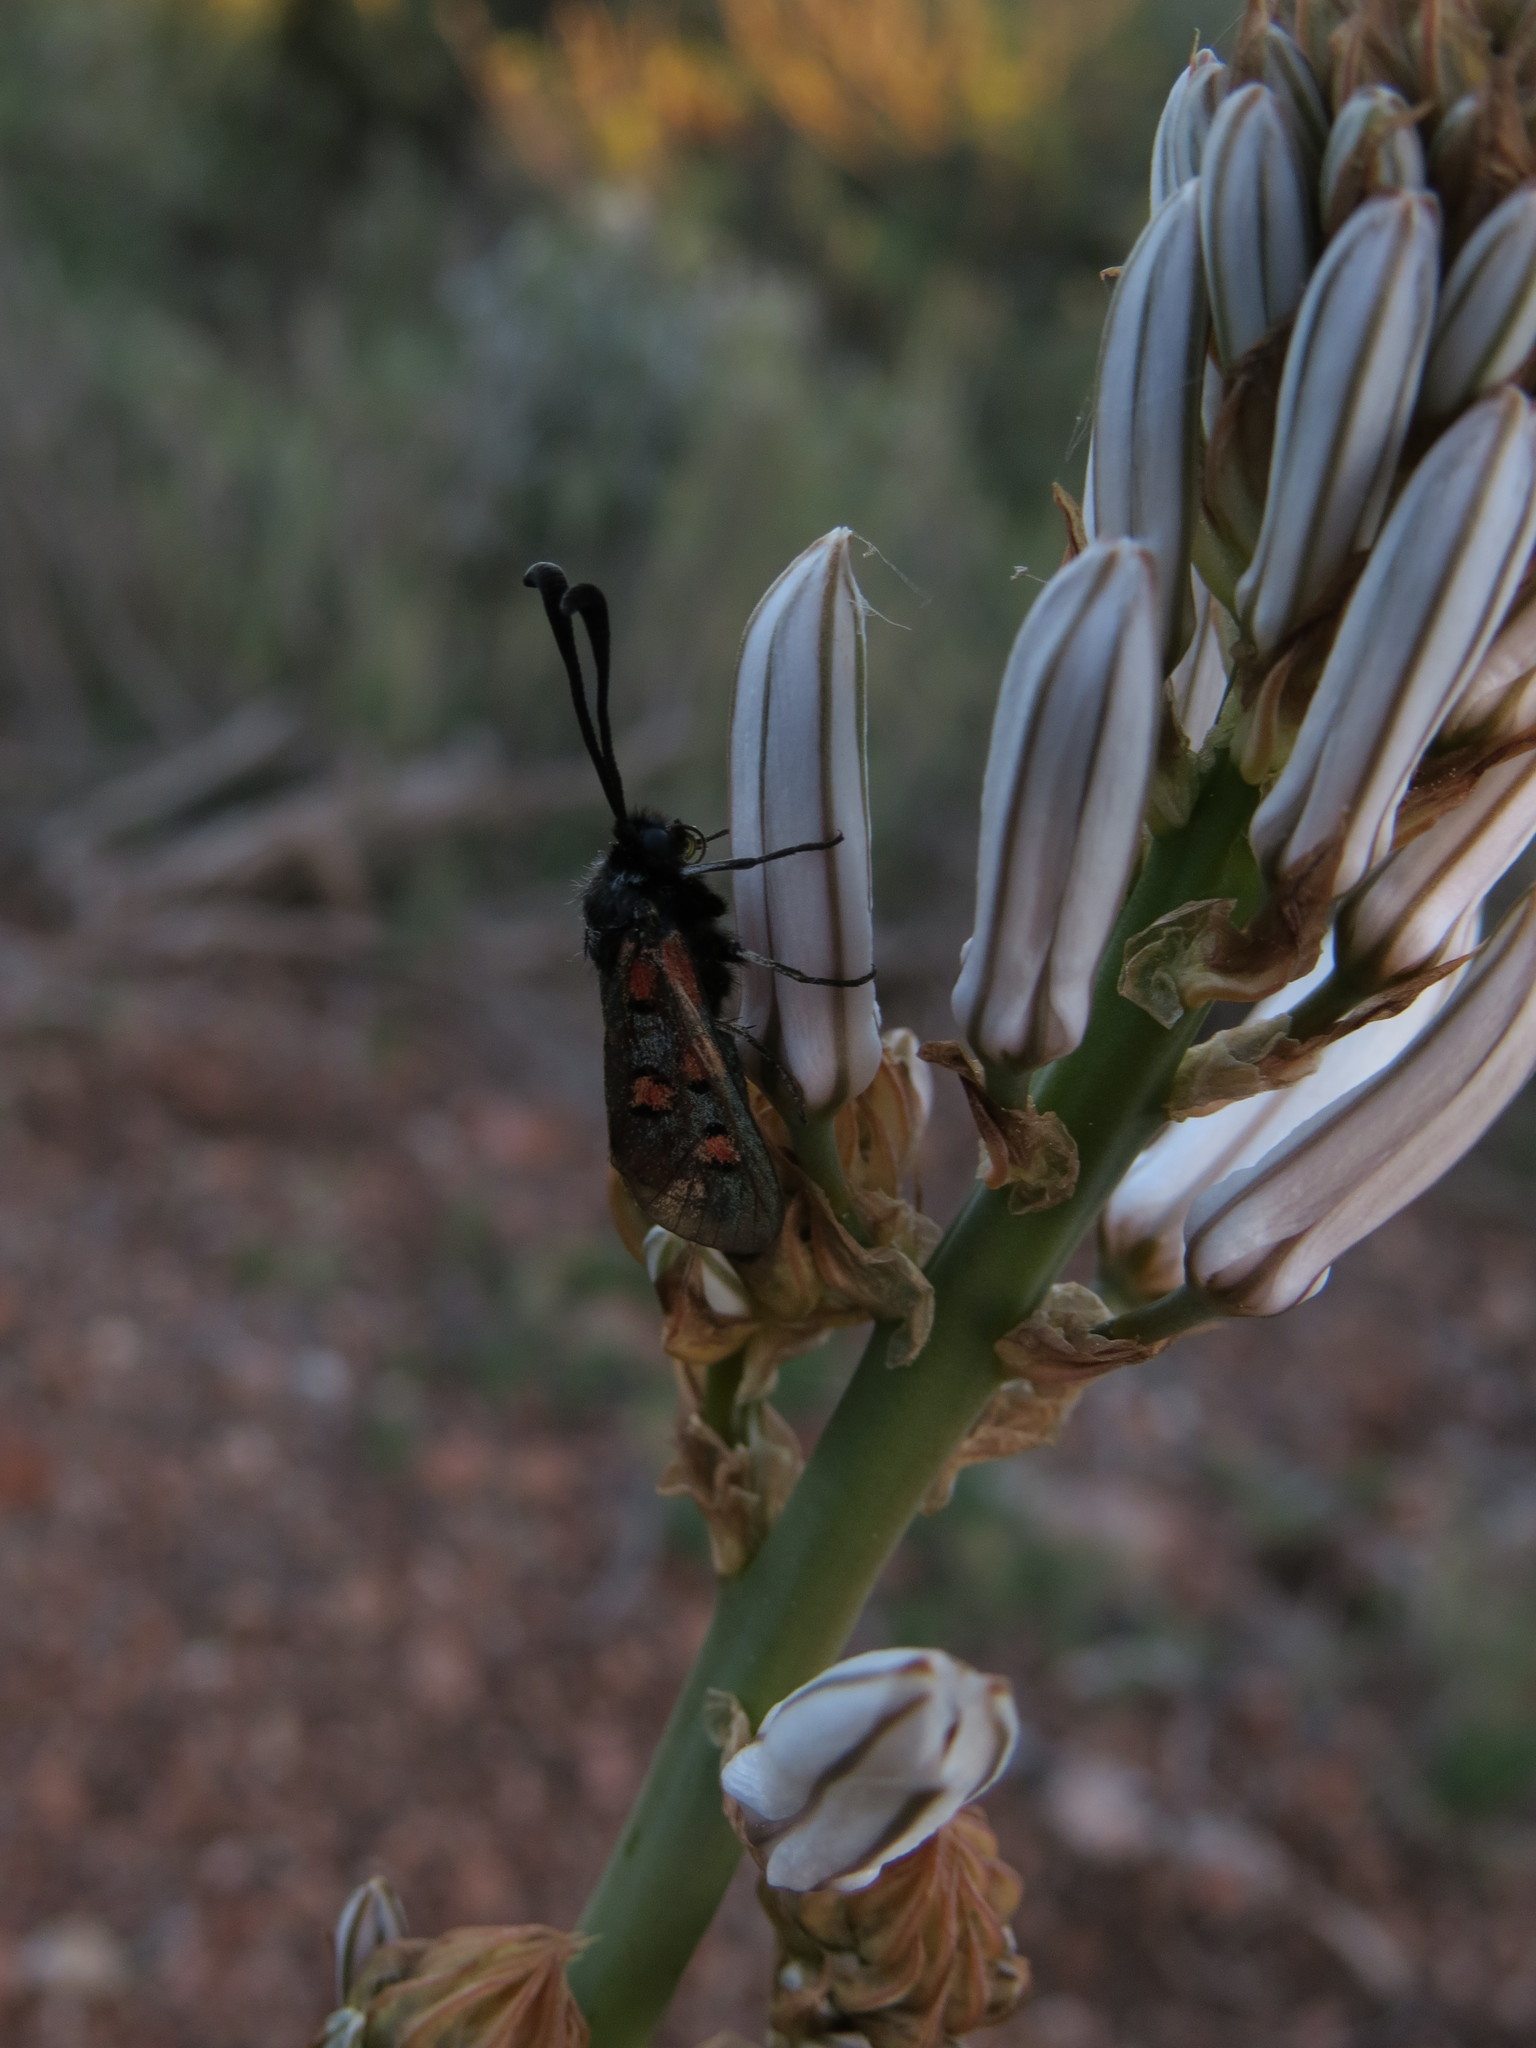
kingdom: Animalia
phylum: Arthropoda
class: Insecta
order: Lepidoptera
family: Zygaenidae
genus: Zygaena
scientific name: Zygaena rhadamanthus
